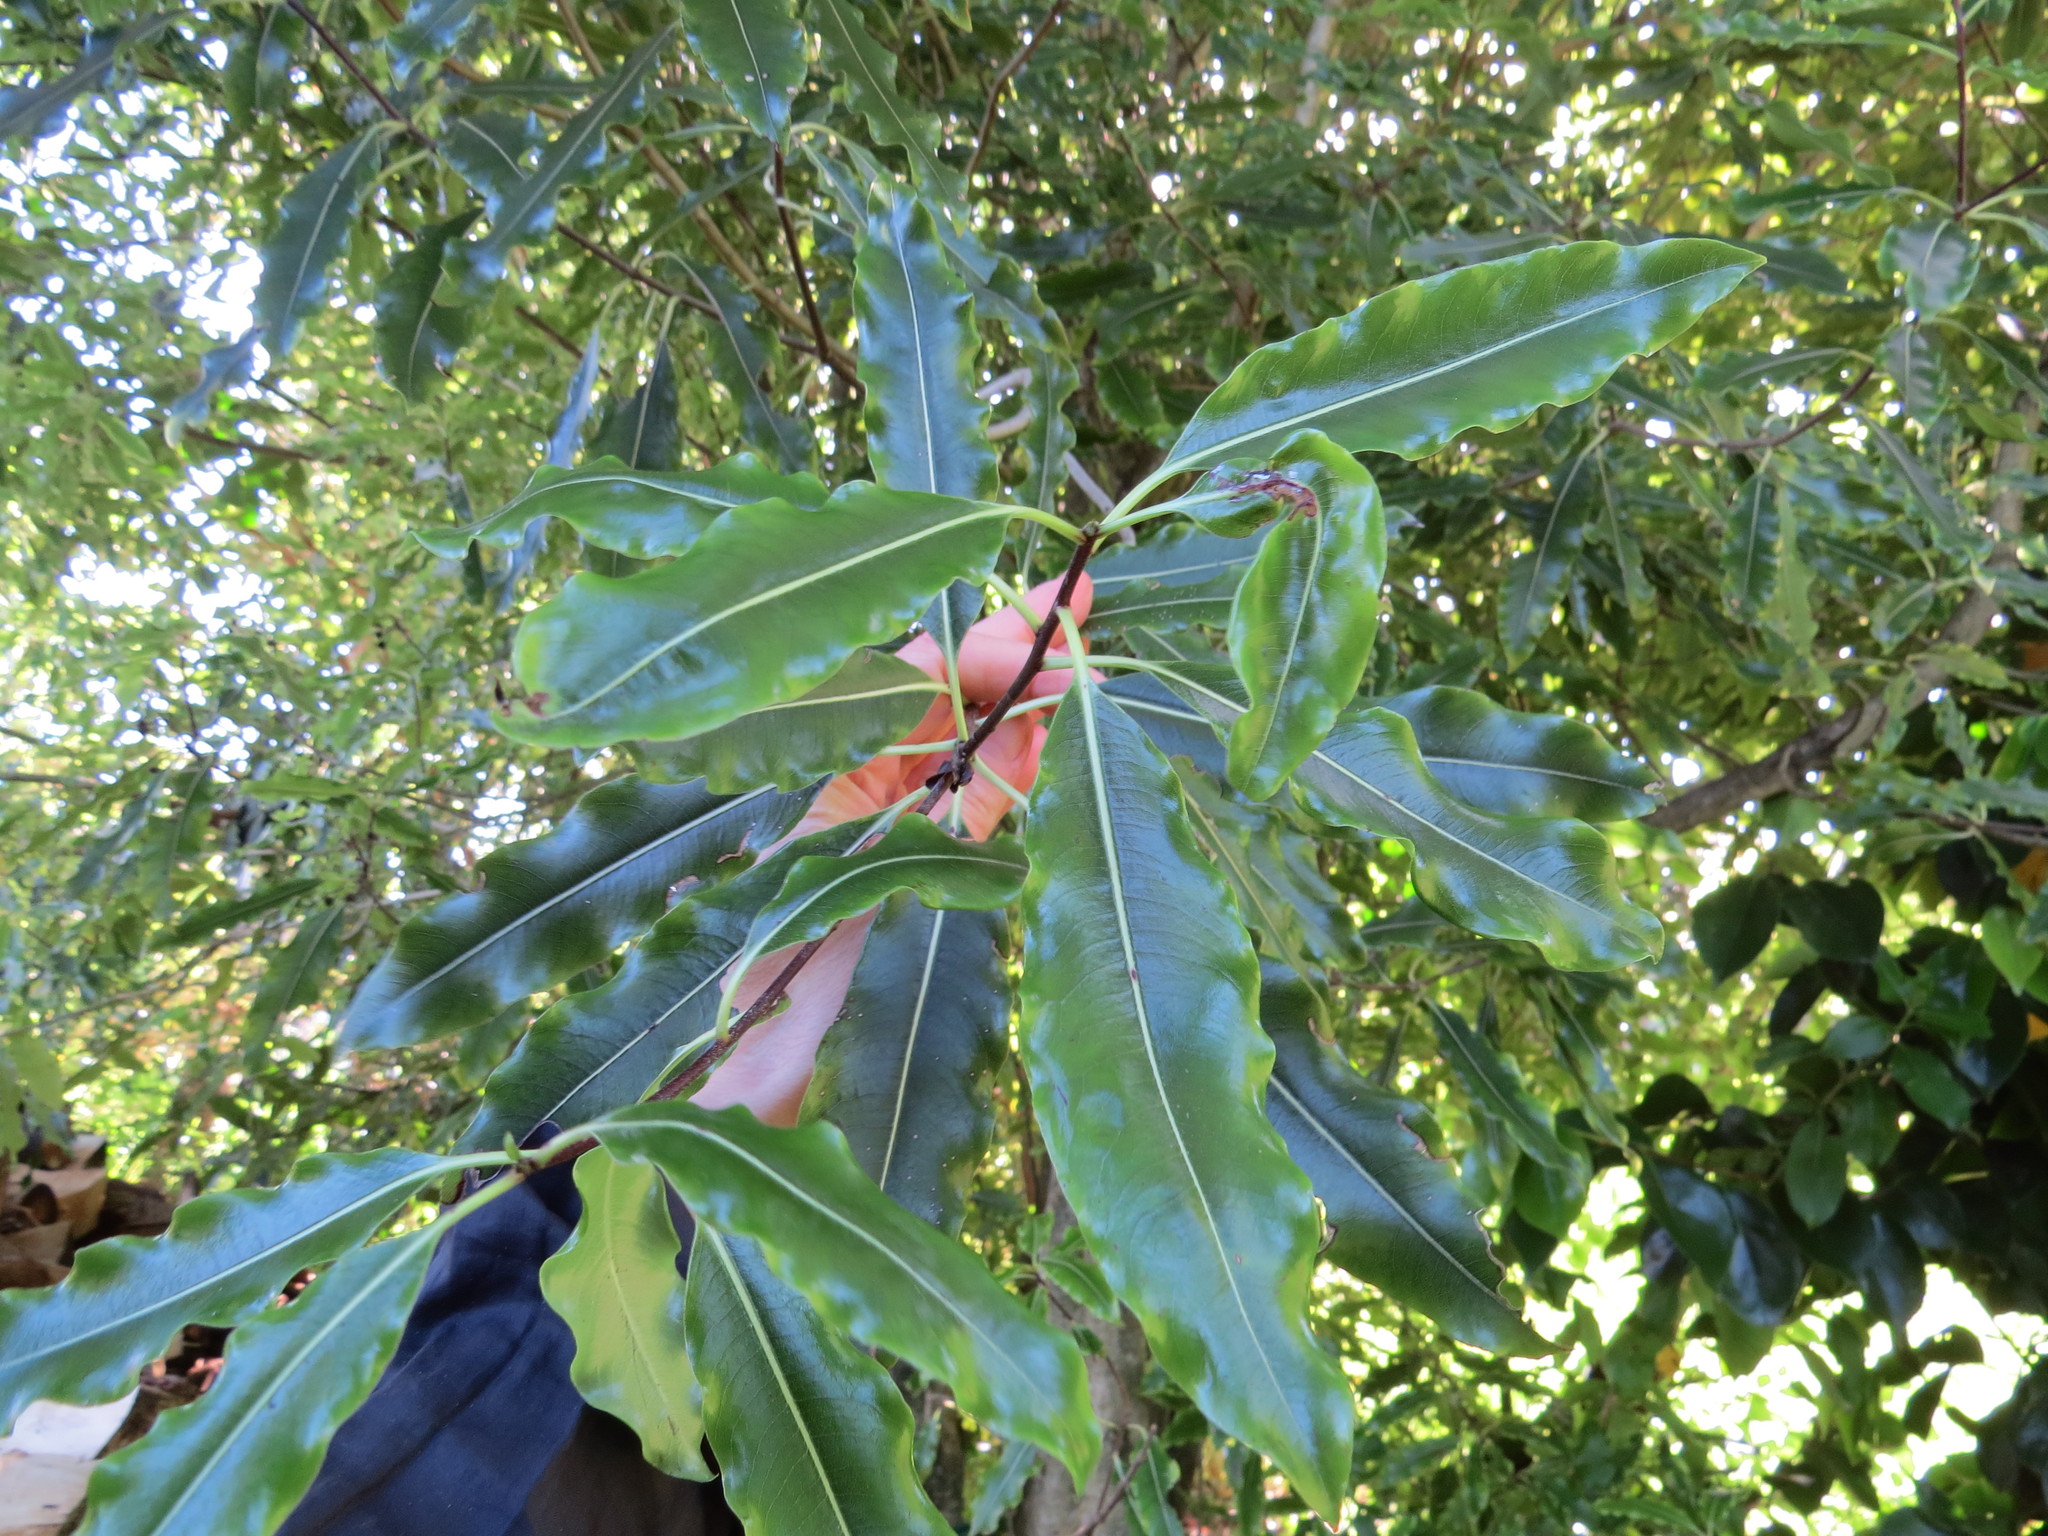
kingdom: Plantae
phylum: Tracheophyta
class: Magnoliopsida
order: Apiales
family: Pittosporaceae
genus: Pittosporum
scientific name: Pittosporum eugenioides
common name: Lemonwood
